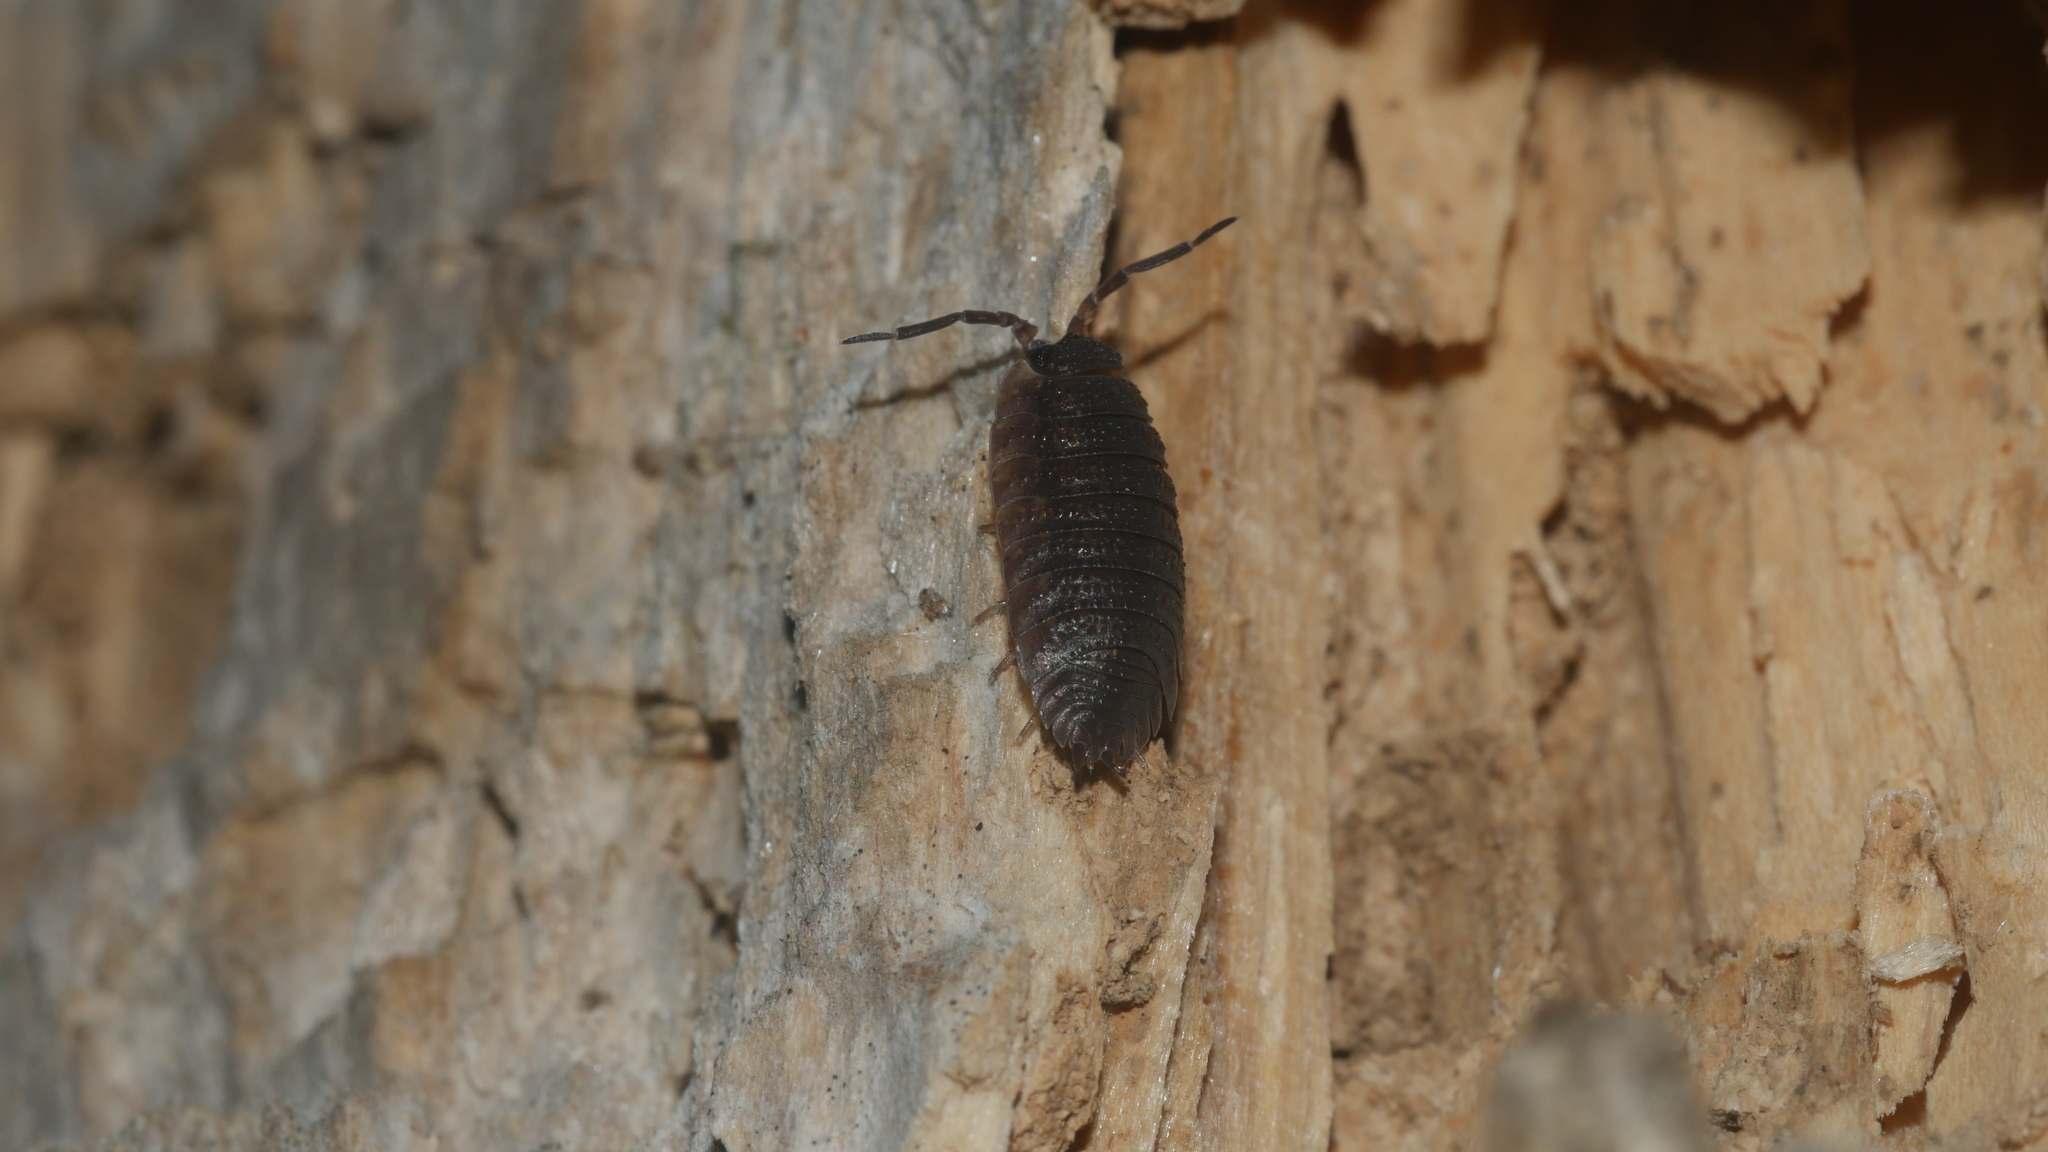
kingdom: Animalia
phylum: Arthropoda
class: Malacostraca
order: Isopoda
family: Porcellionidae
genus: Porcellio
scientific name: Porcellio scaber
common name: Common rough woodlouse
